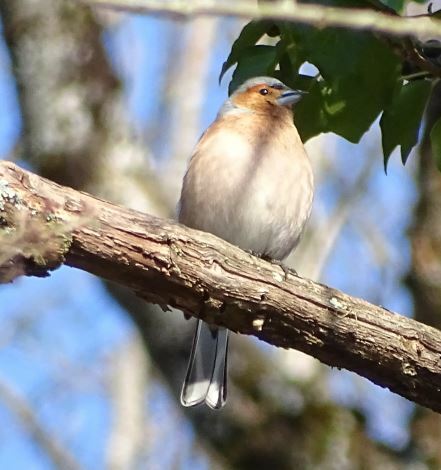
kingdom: Animalia
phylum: Chordata
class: Aves
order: Passeriformes
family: Fringillidae
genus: Fringilla
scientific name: Fringilla coelebs
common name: Common chaffinch
